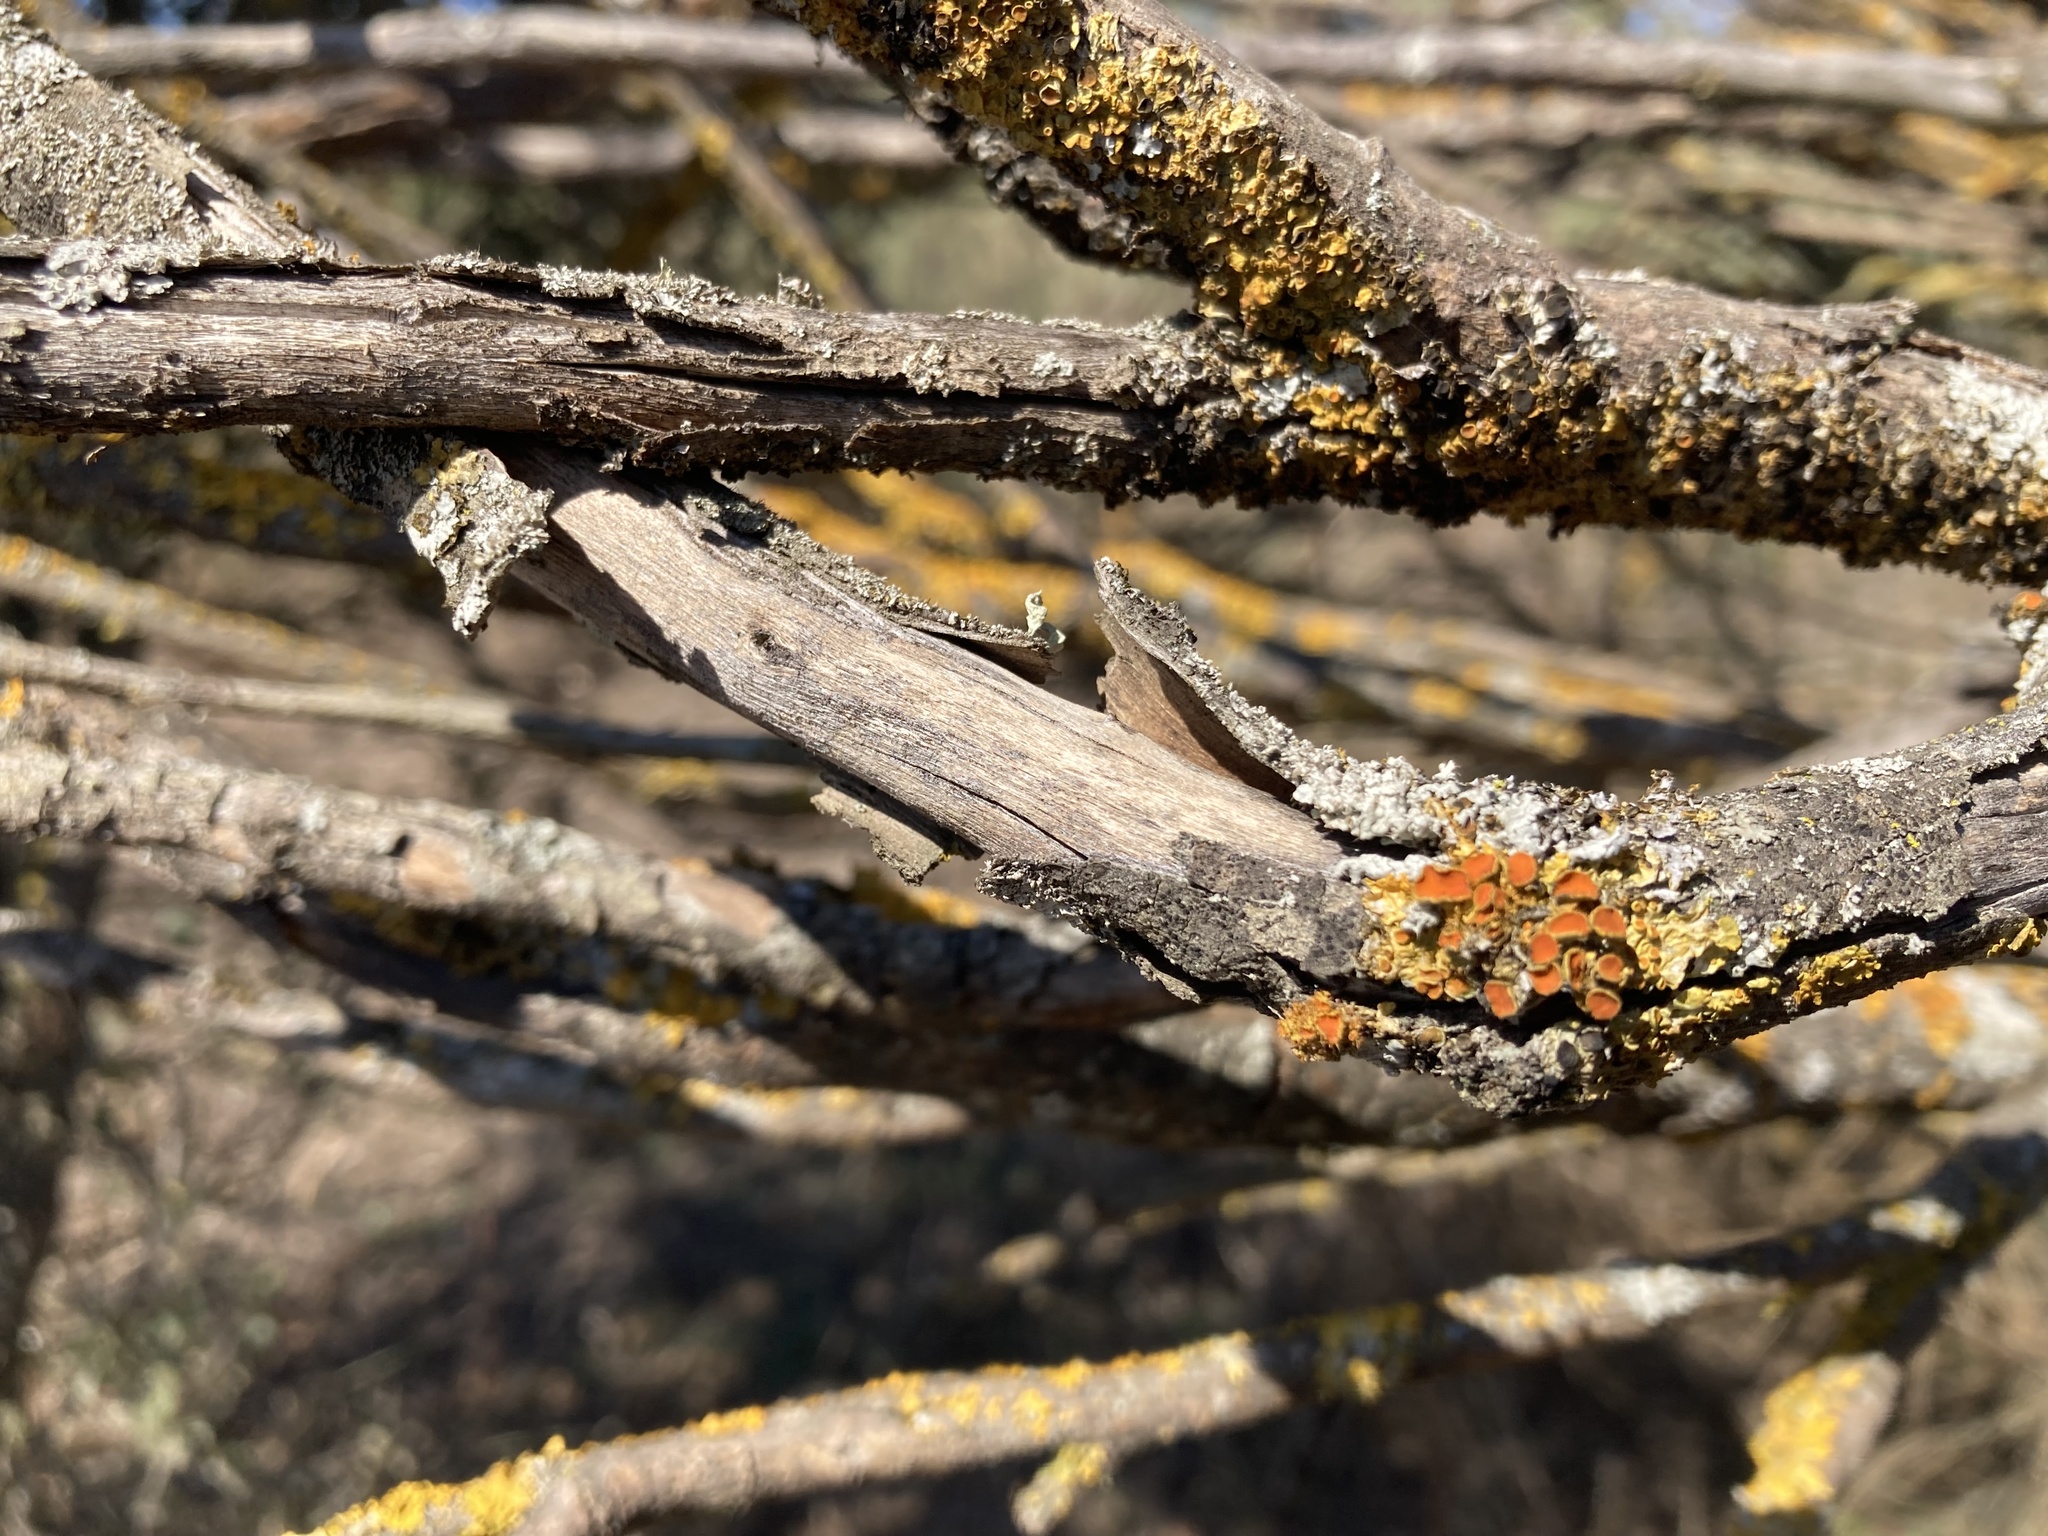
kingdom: Fungi
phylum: Ascomycota
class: Lecanoromycetes
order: Teloschistales
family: Teloschistaceae
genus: Niorma
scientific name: Niorma chrysophthalma
